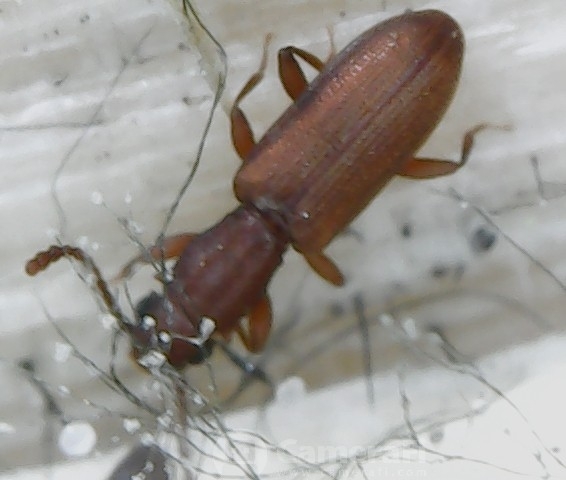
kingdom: Animalia
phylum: Arthropoda
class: Insecta
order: Coleoptera
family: Curculionidae
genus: Pityogenes
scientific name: Pityogenes bidentatus
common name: Two-toothed pine beetle
